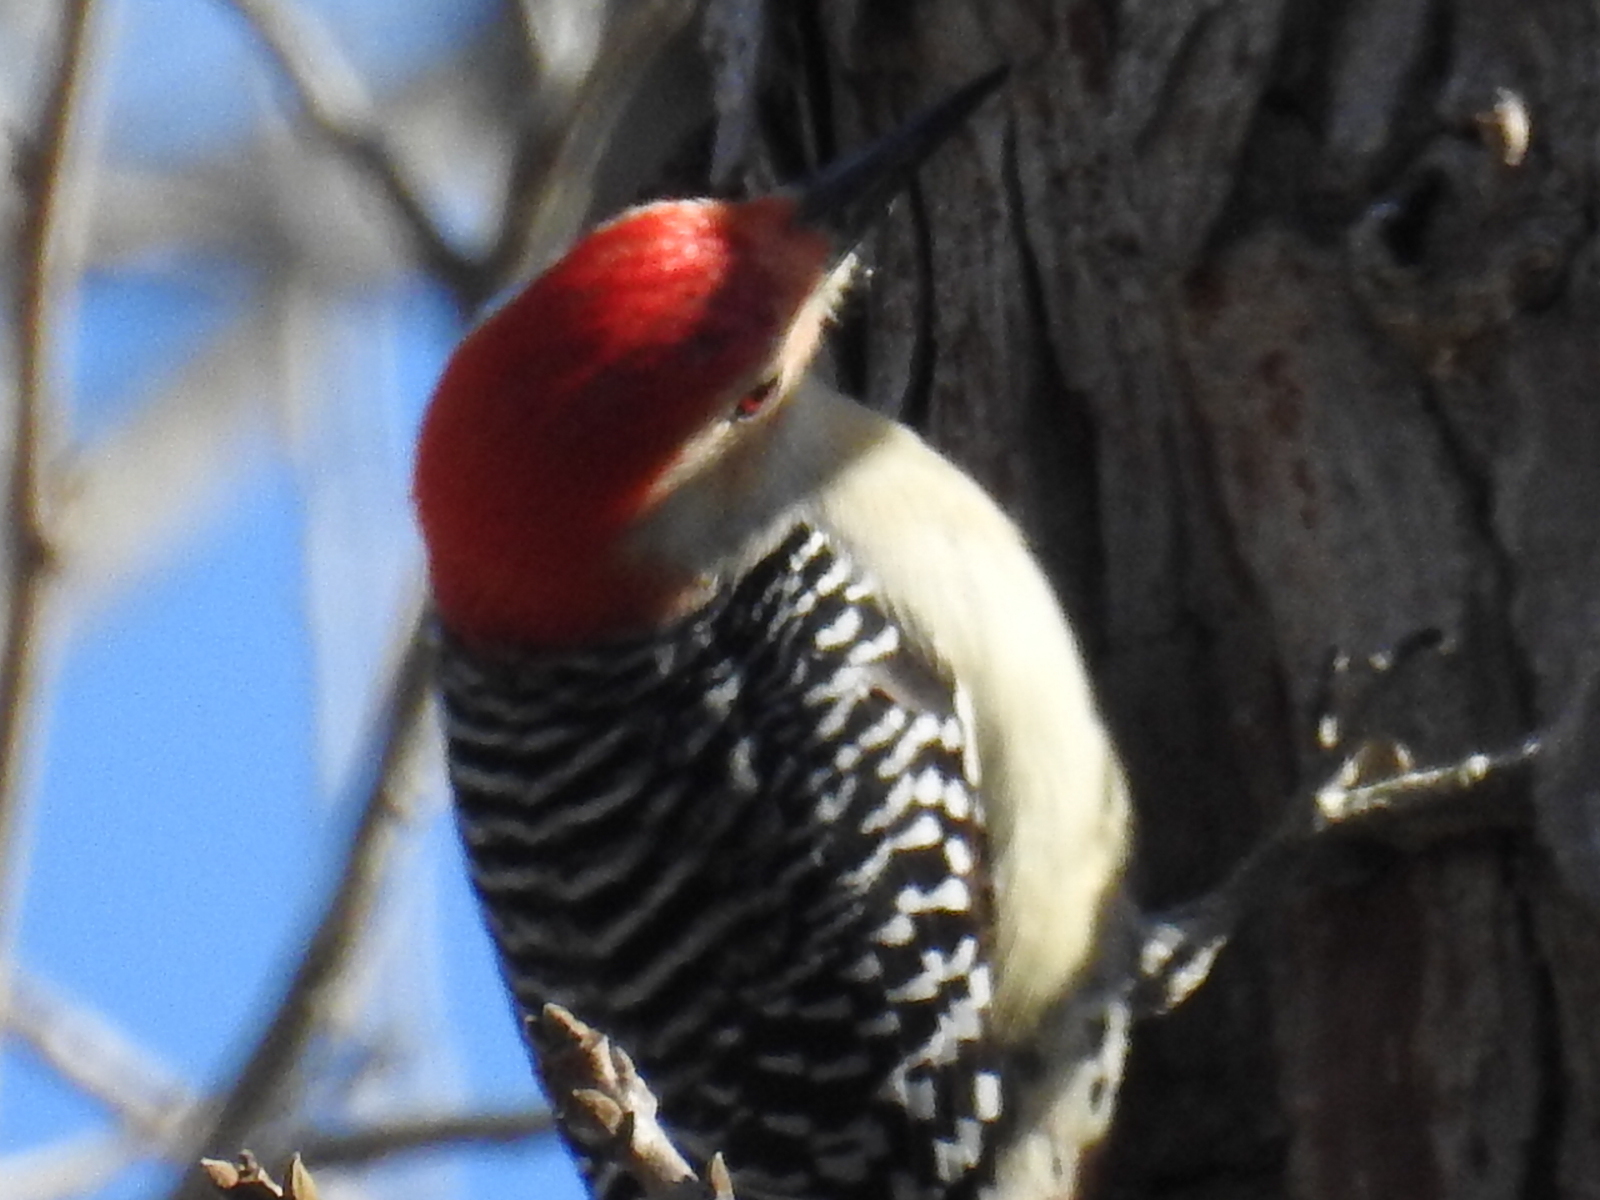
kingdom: Animalia
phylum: Chordata
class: Aves
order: Piciformes
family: Picidae
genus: Melanerpes
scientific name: Melanerpes carolinus
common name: Red-bellied woodpecker
